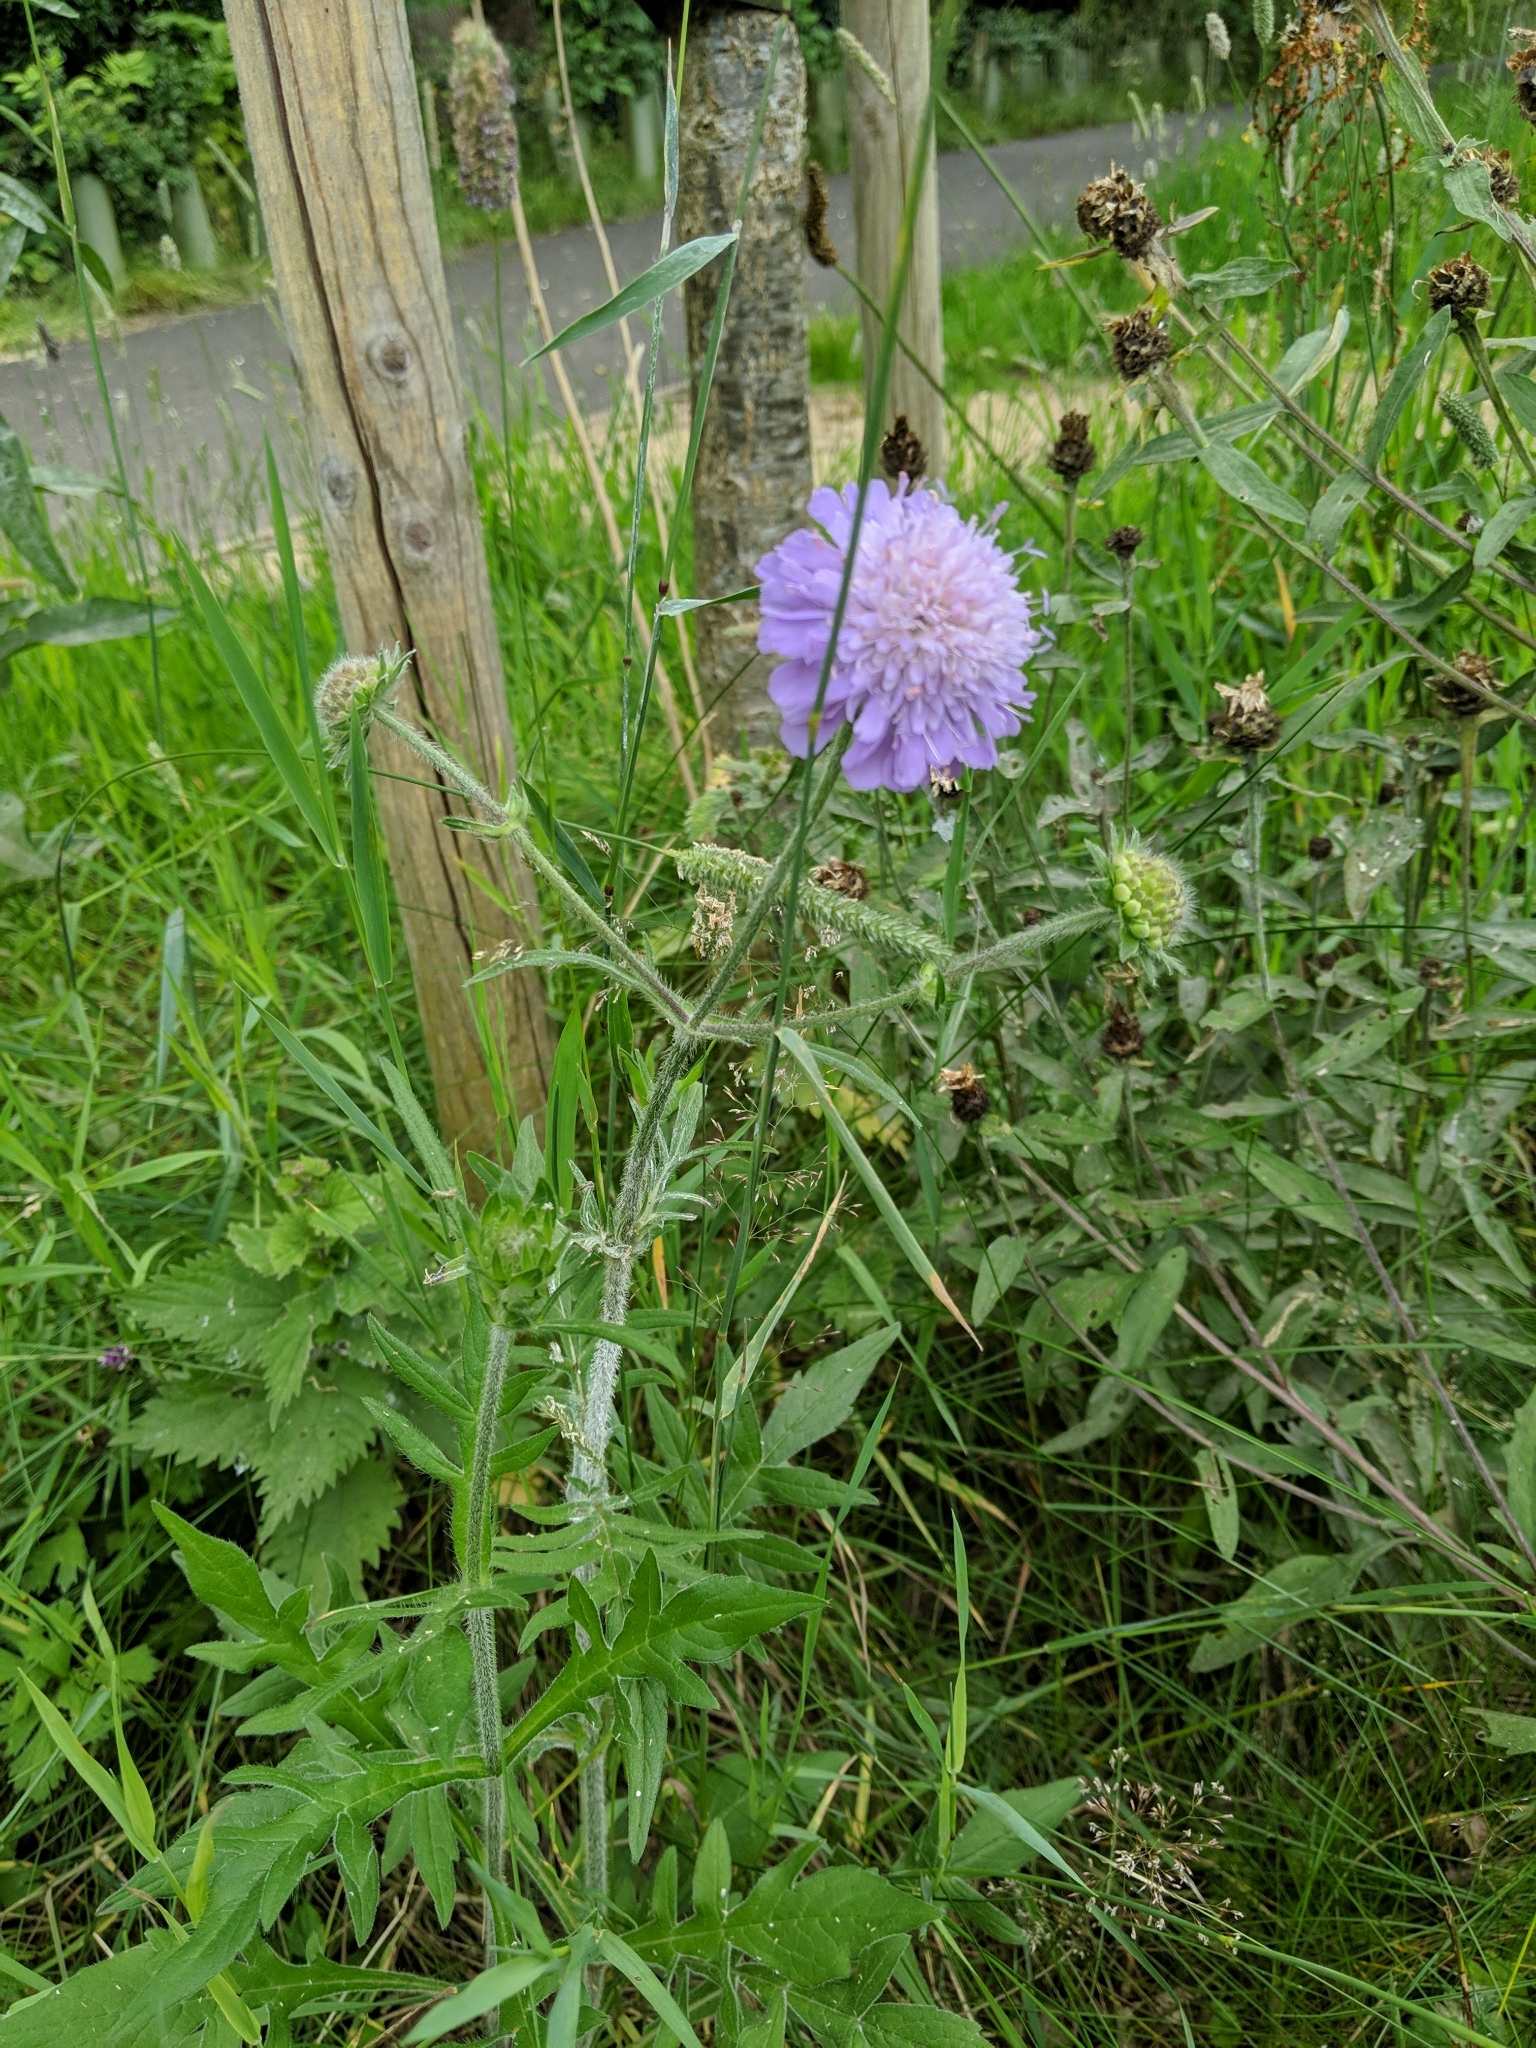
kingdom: Plantae
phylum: Tracheophyta
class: Magnoliopsida
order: Dipsacales
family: Caprifoliaceae
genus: Knautia
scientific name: Knautia arvensis
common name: Field scabiosa
